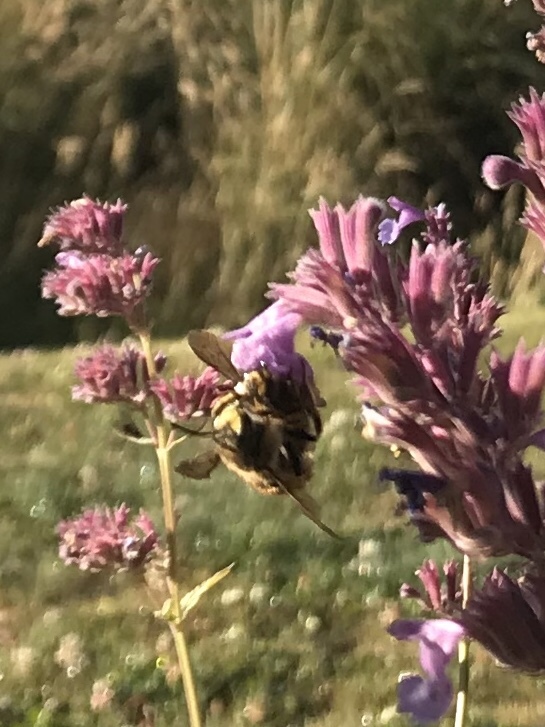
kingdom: Animalia
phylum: Arthropoda
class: Insecta
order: Hymenoptera
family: Megachilidae
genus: Anthidium
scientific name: Anthidium manicatum
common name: Wool carder bee
